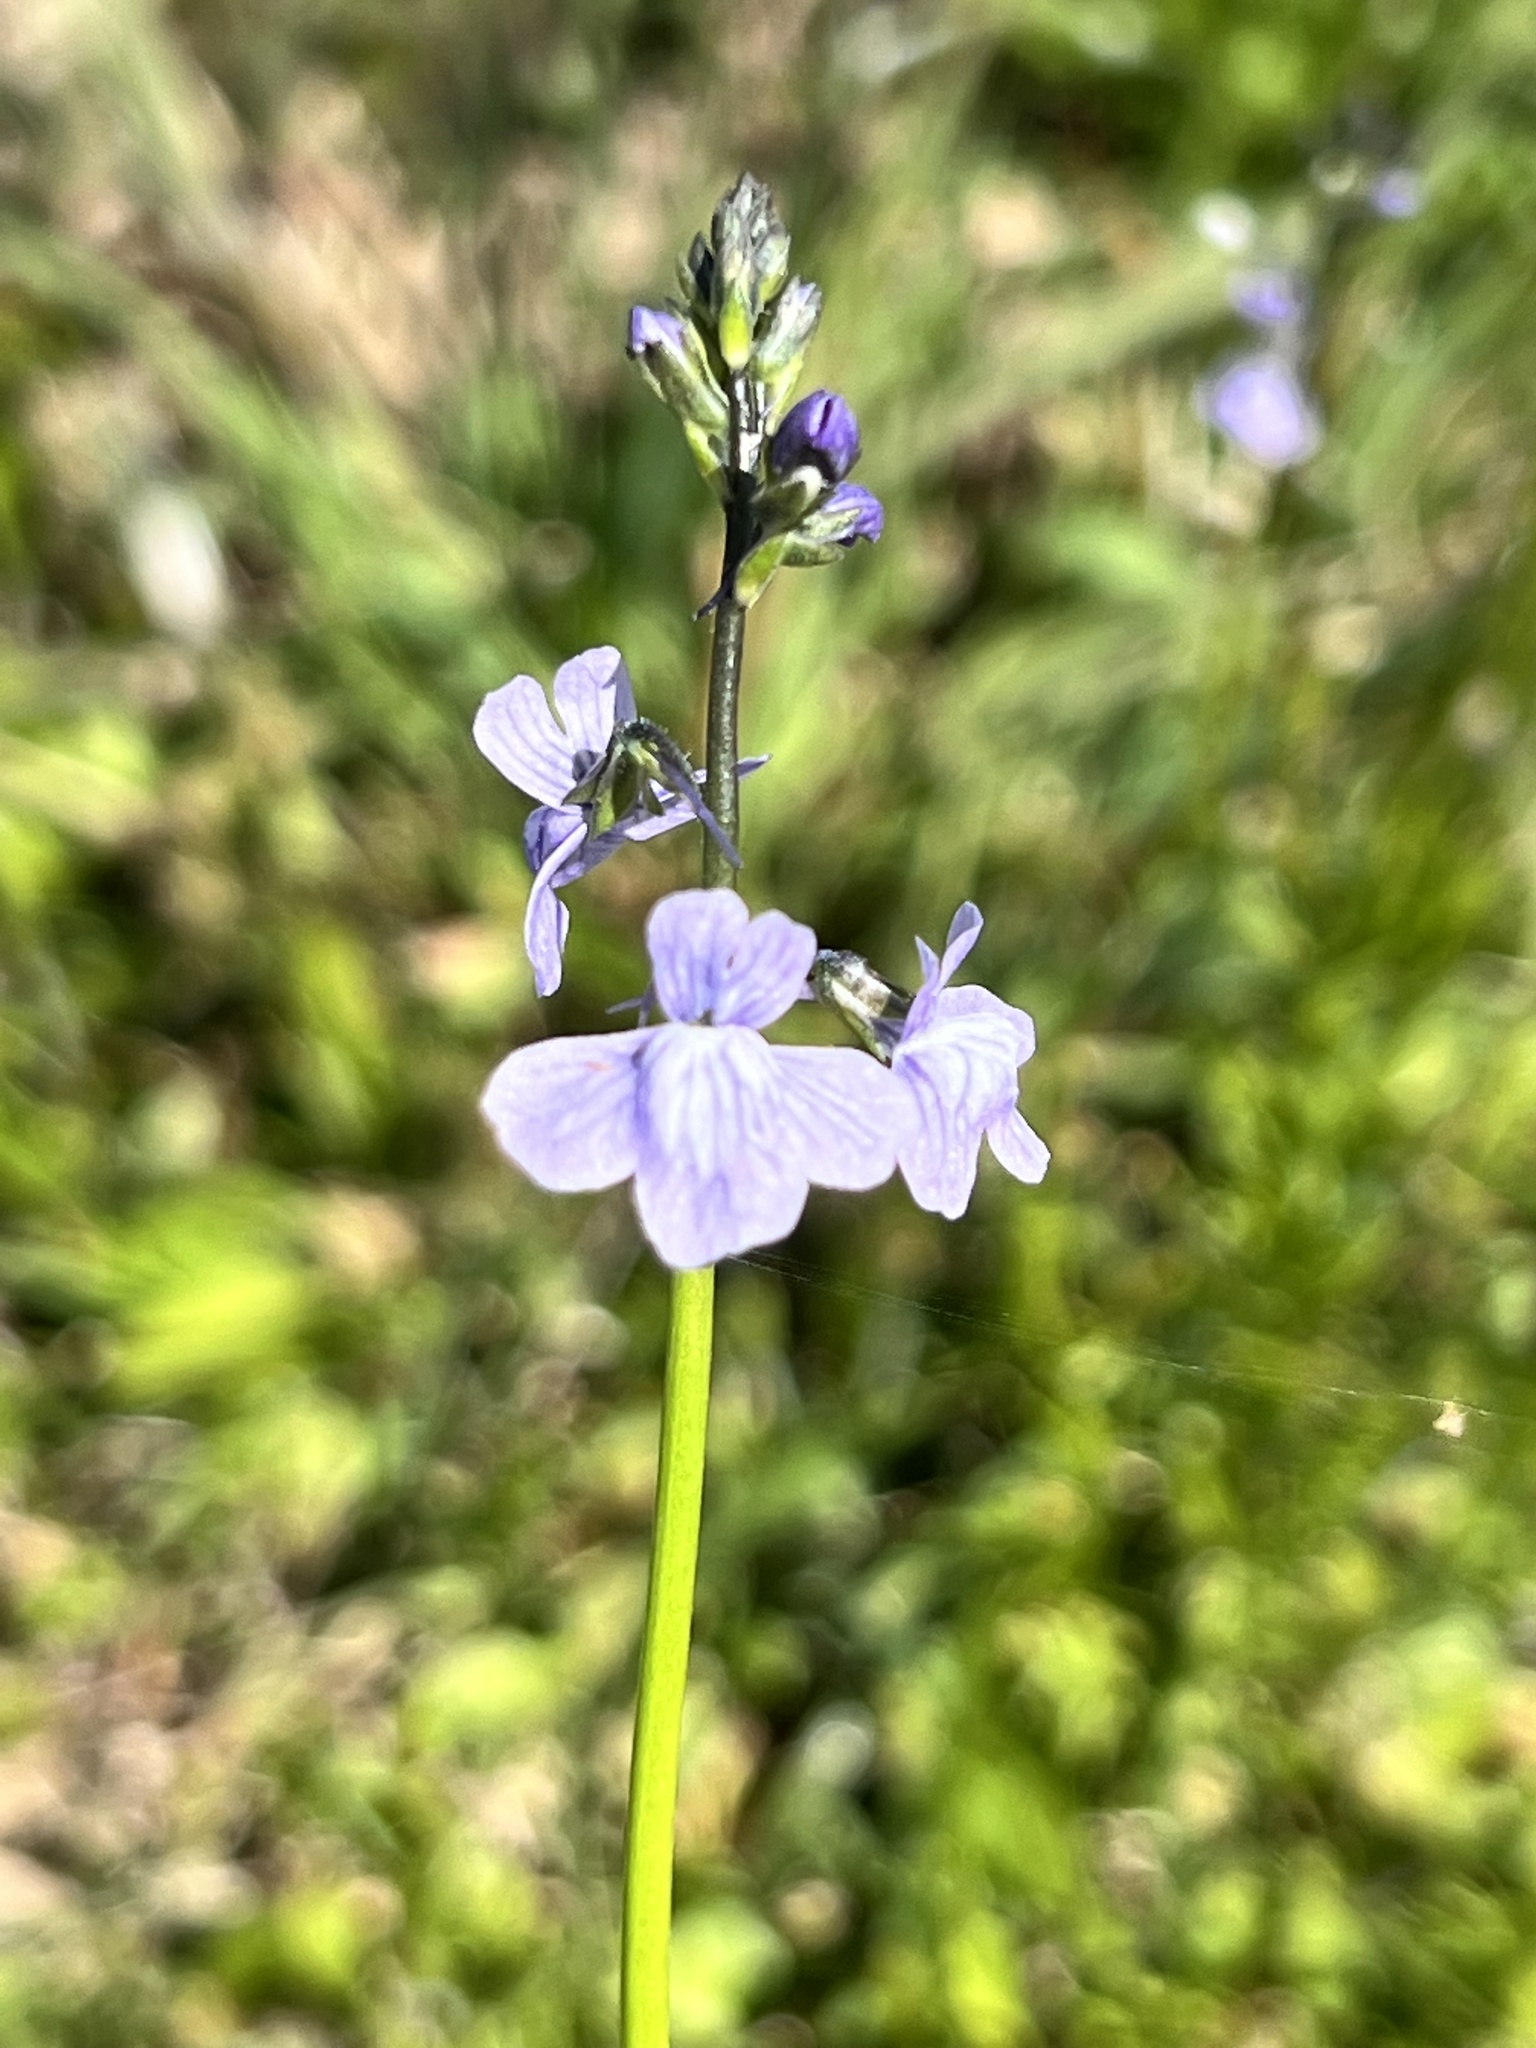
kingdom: Plantae
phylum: Tracheophyta
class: Magnoliopsida
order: Lamiales
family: Plantaginaceae
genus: Nuttallanthus
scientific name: Nuttallanthus texanus
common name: Texas toadflax
